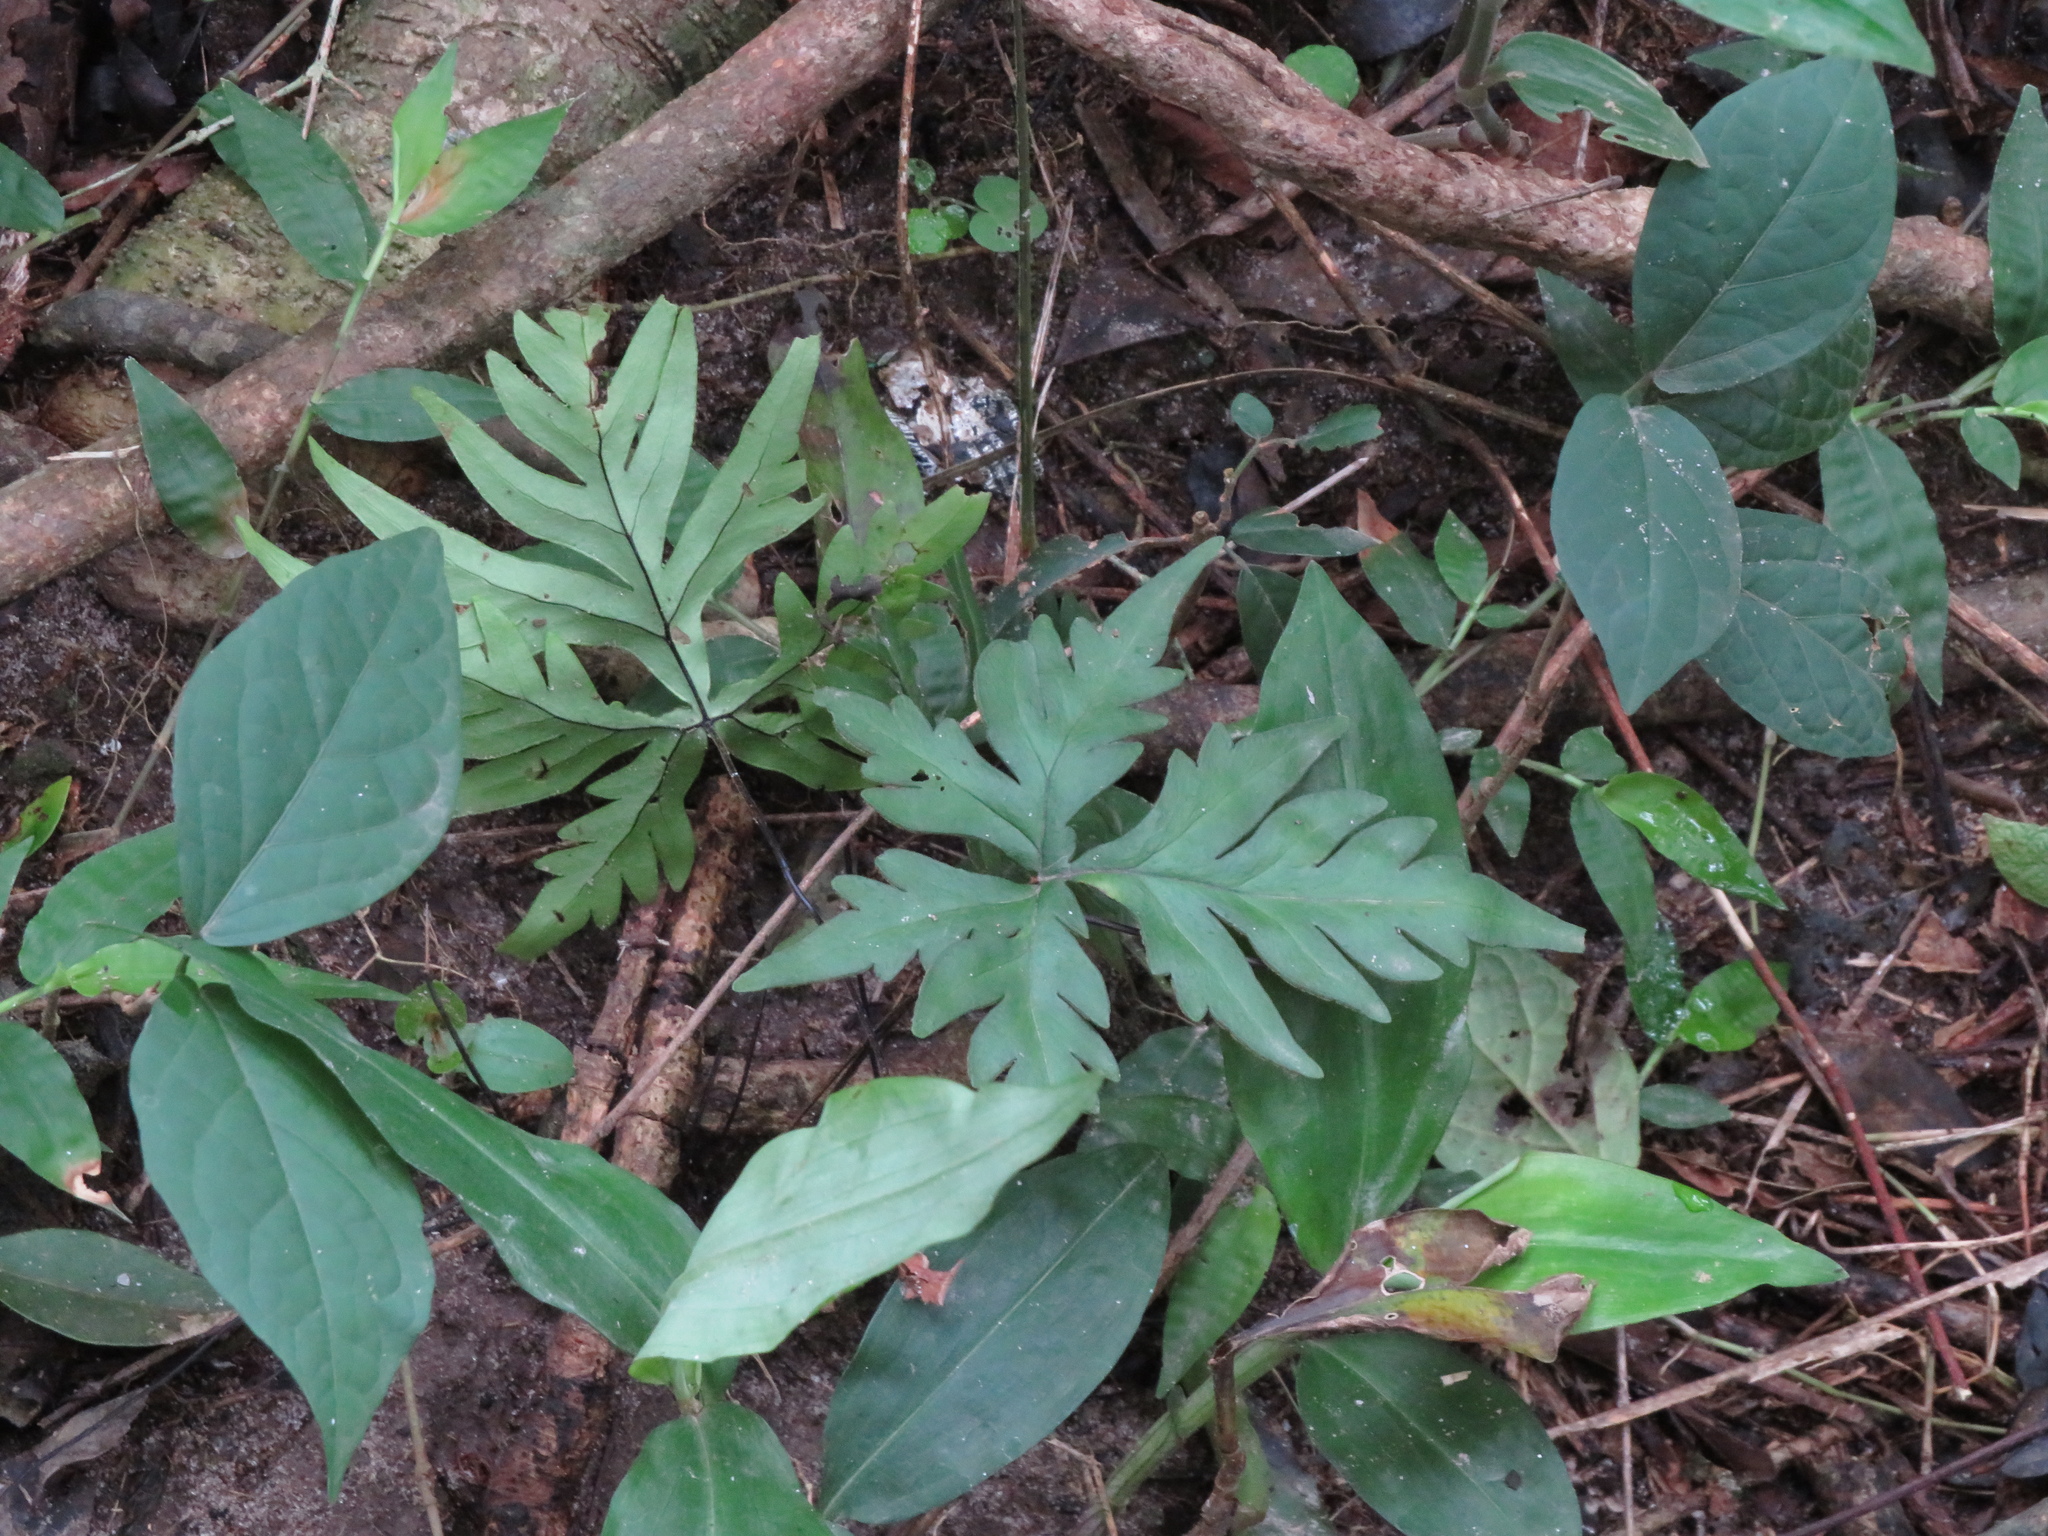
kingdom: Plantae
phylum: Tracheophyta
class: Polypodiopsida
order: Polypodiales
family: Pteridaceae
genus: Doryopteris
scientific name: Doryopteris lorentzii
